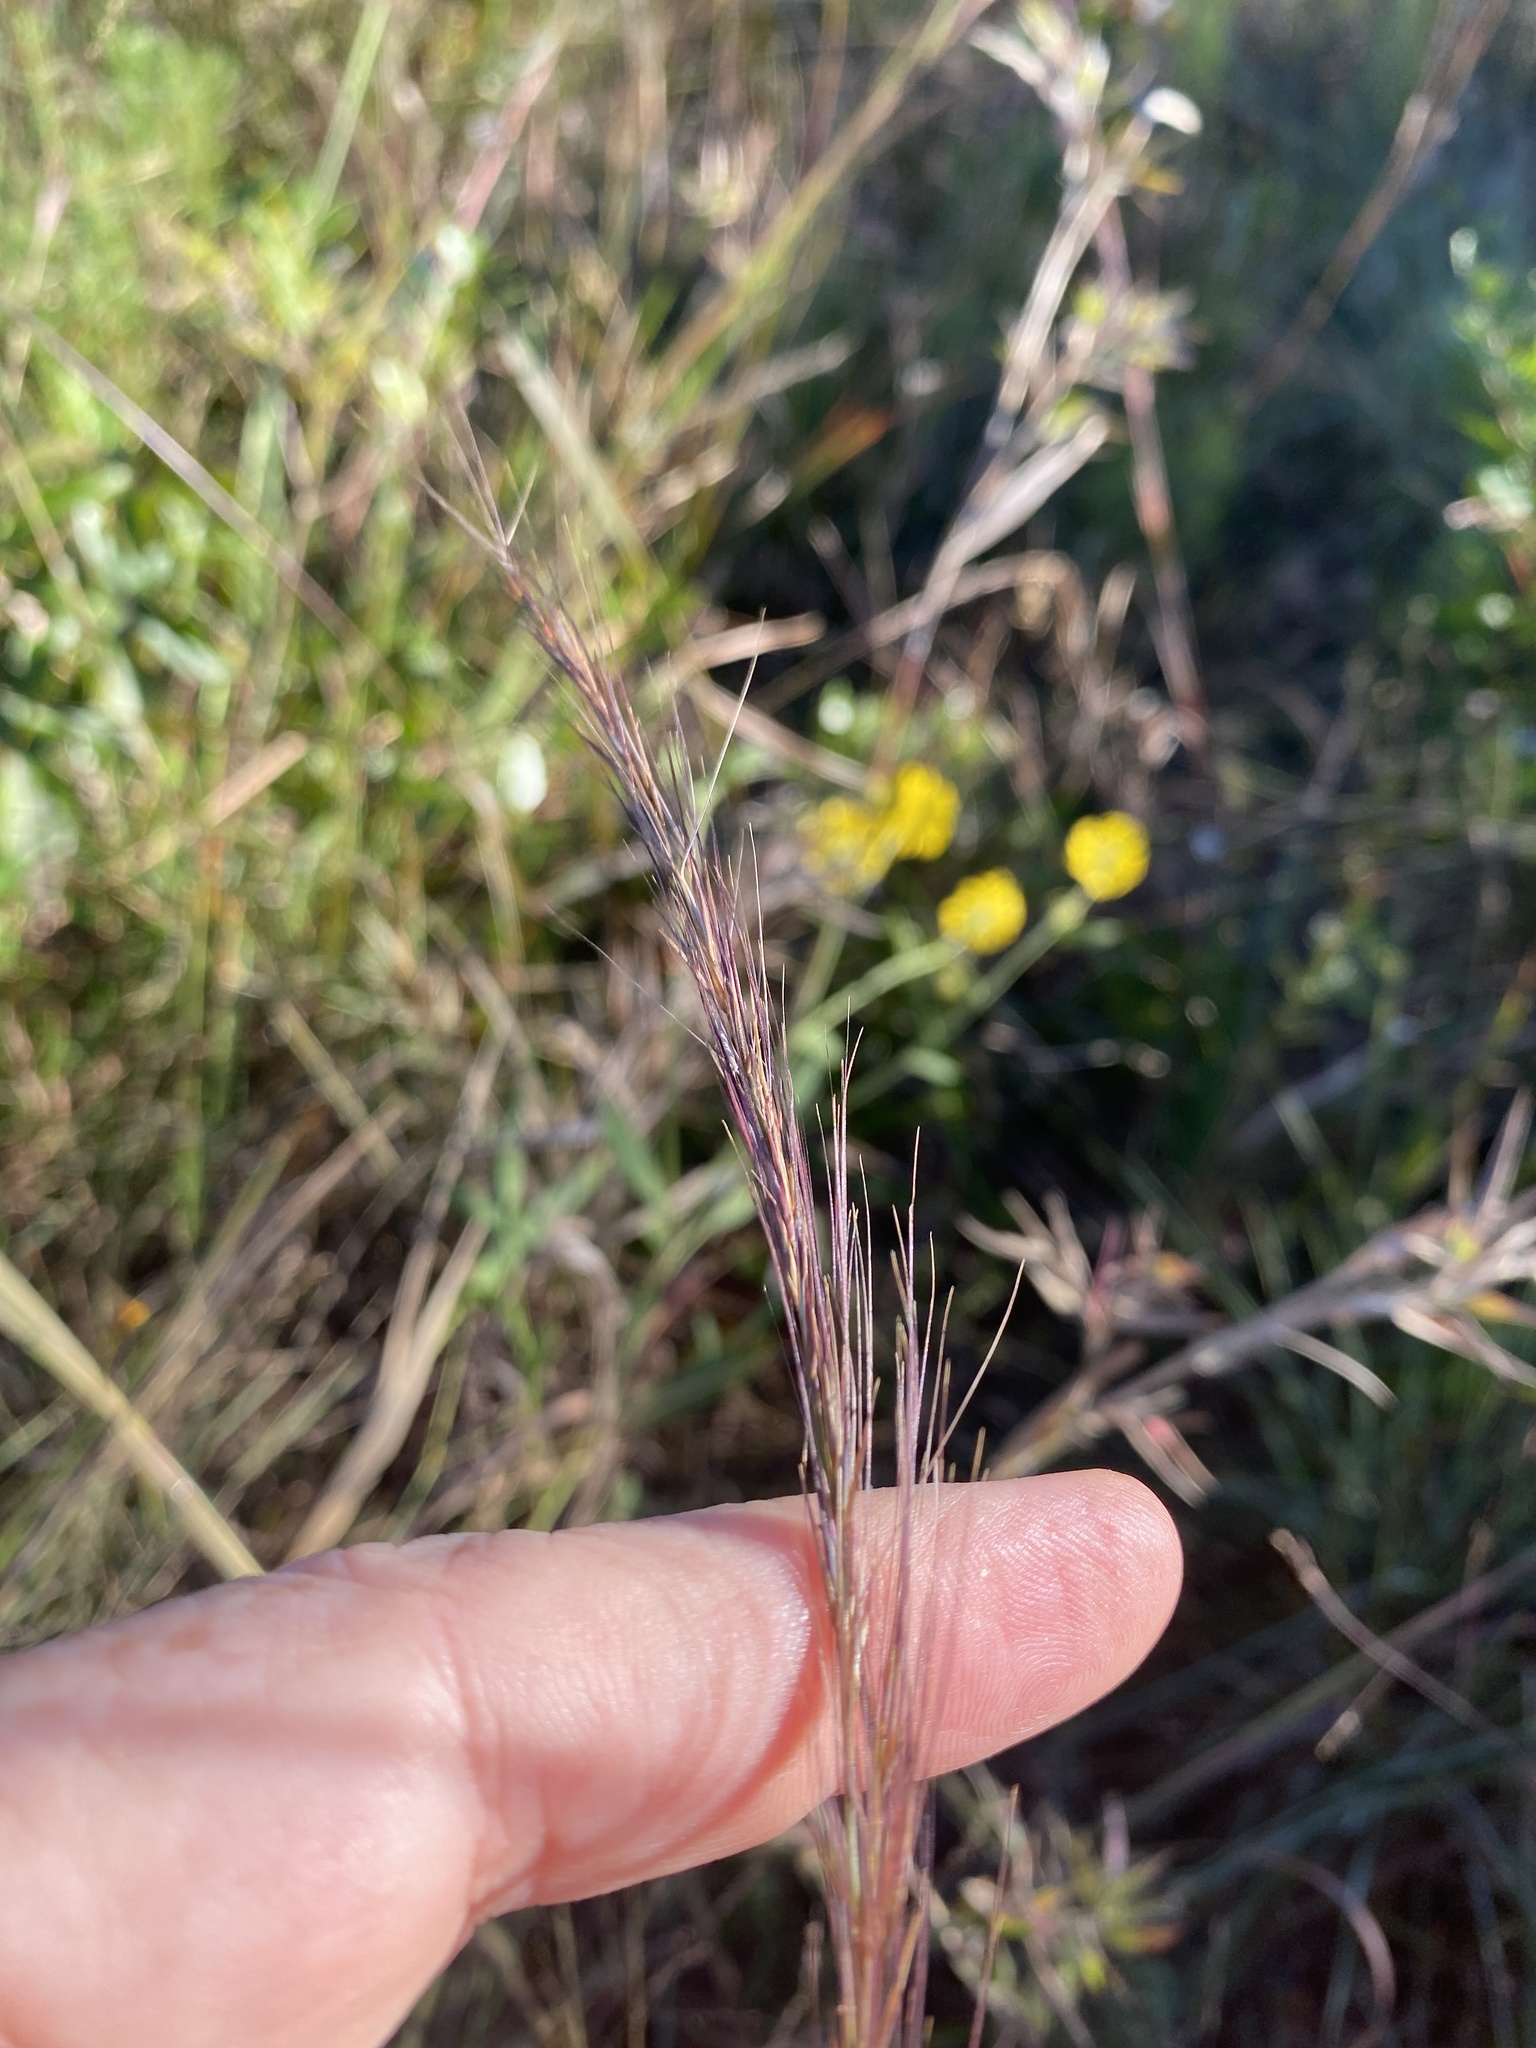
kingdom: Plantae
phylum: Tracheophyta
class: Liliopsida
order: Poales
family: Poaceae
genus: Aristida
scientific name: Aristida virgata
